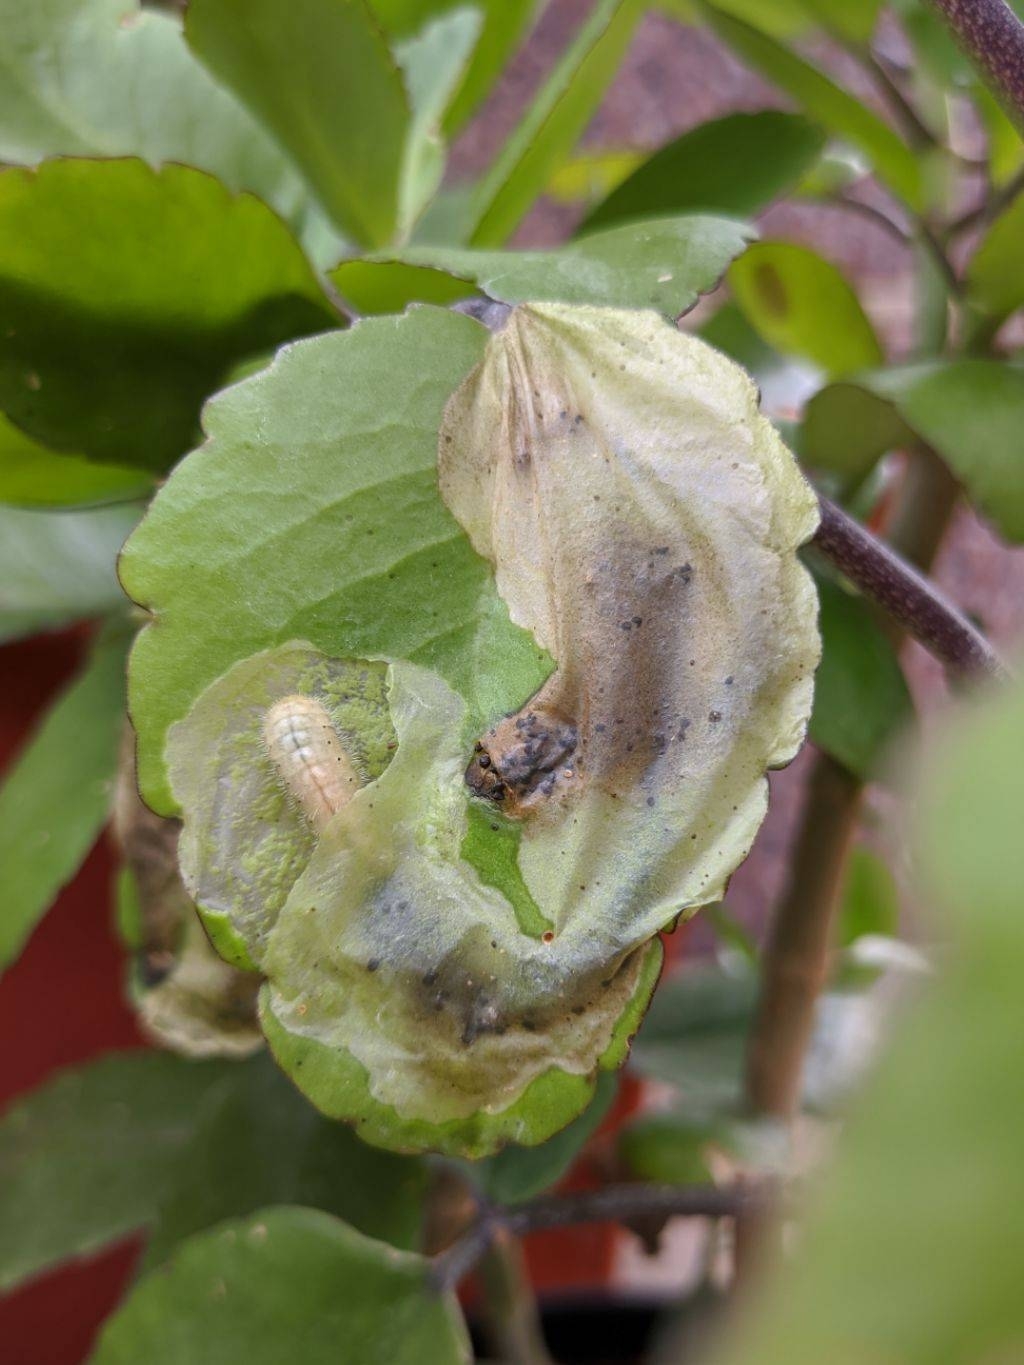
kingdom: Animalia
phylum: Arthropoda
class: Insecta
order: Lepidoptera
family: Lycaenidae
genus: Talicada
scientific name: Talicada nyseus
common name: Red pierrot
